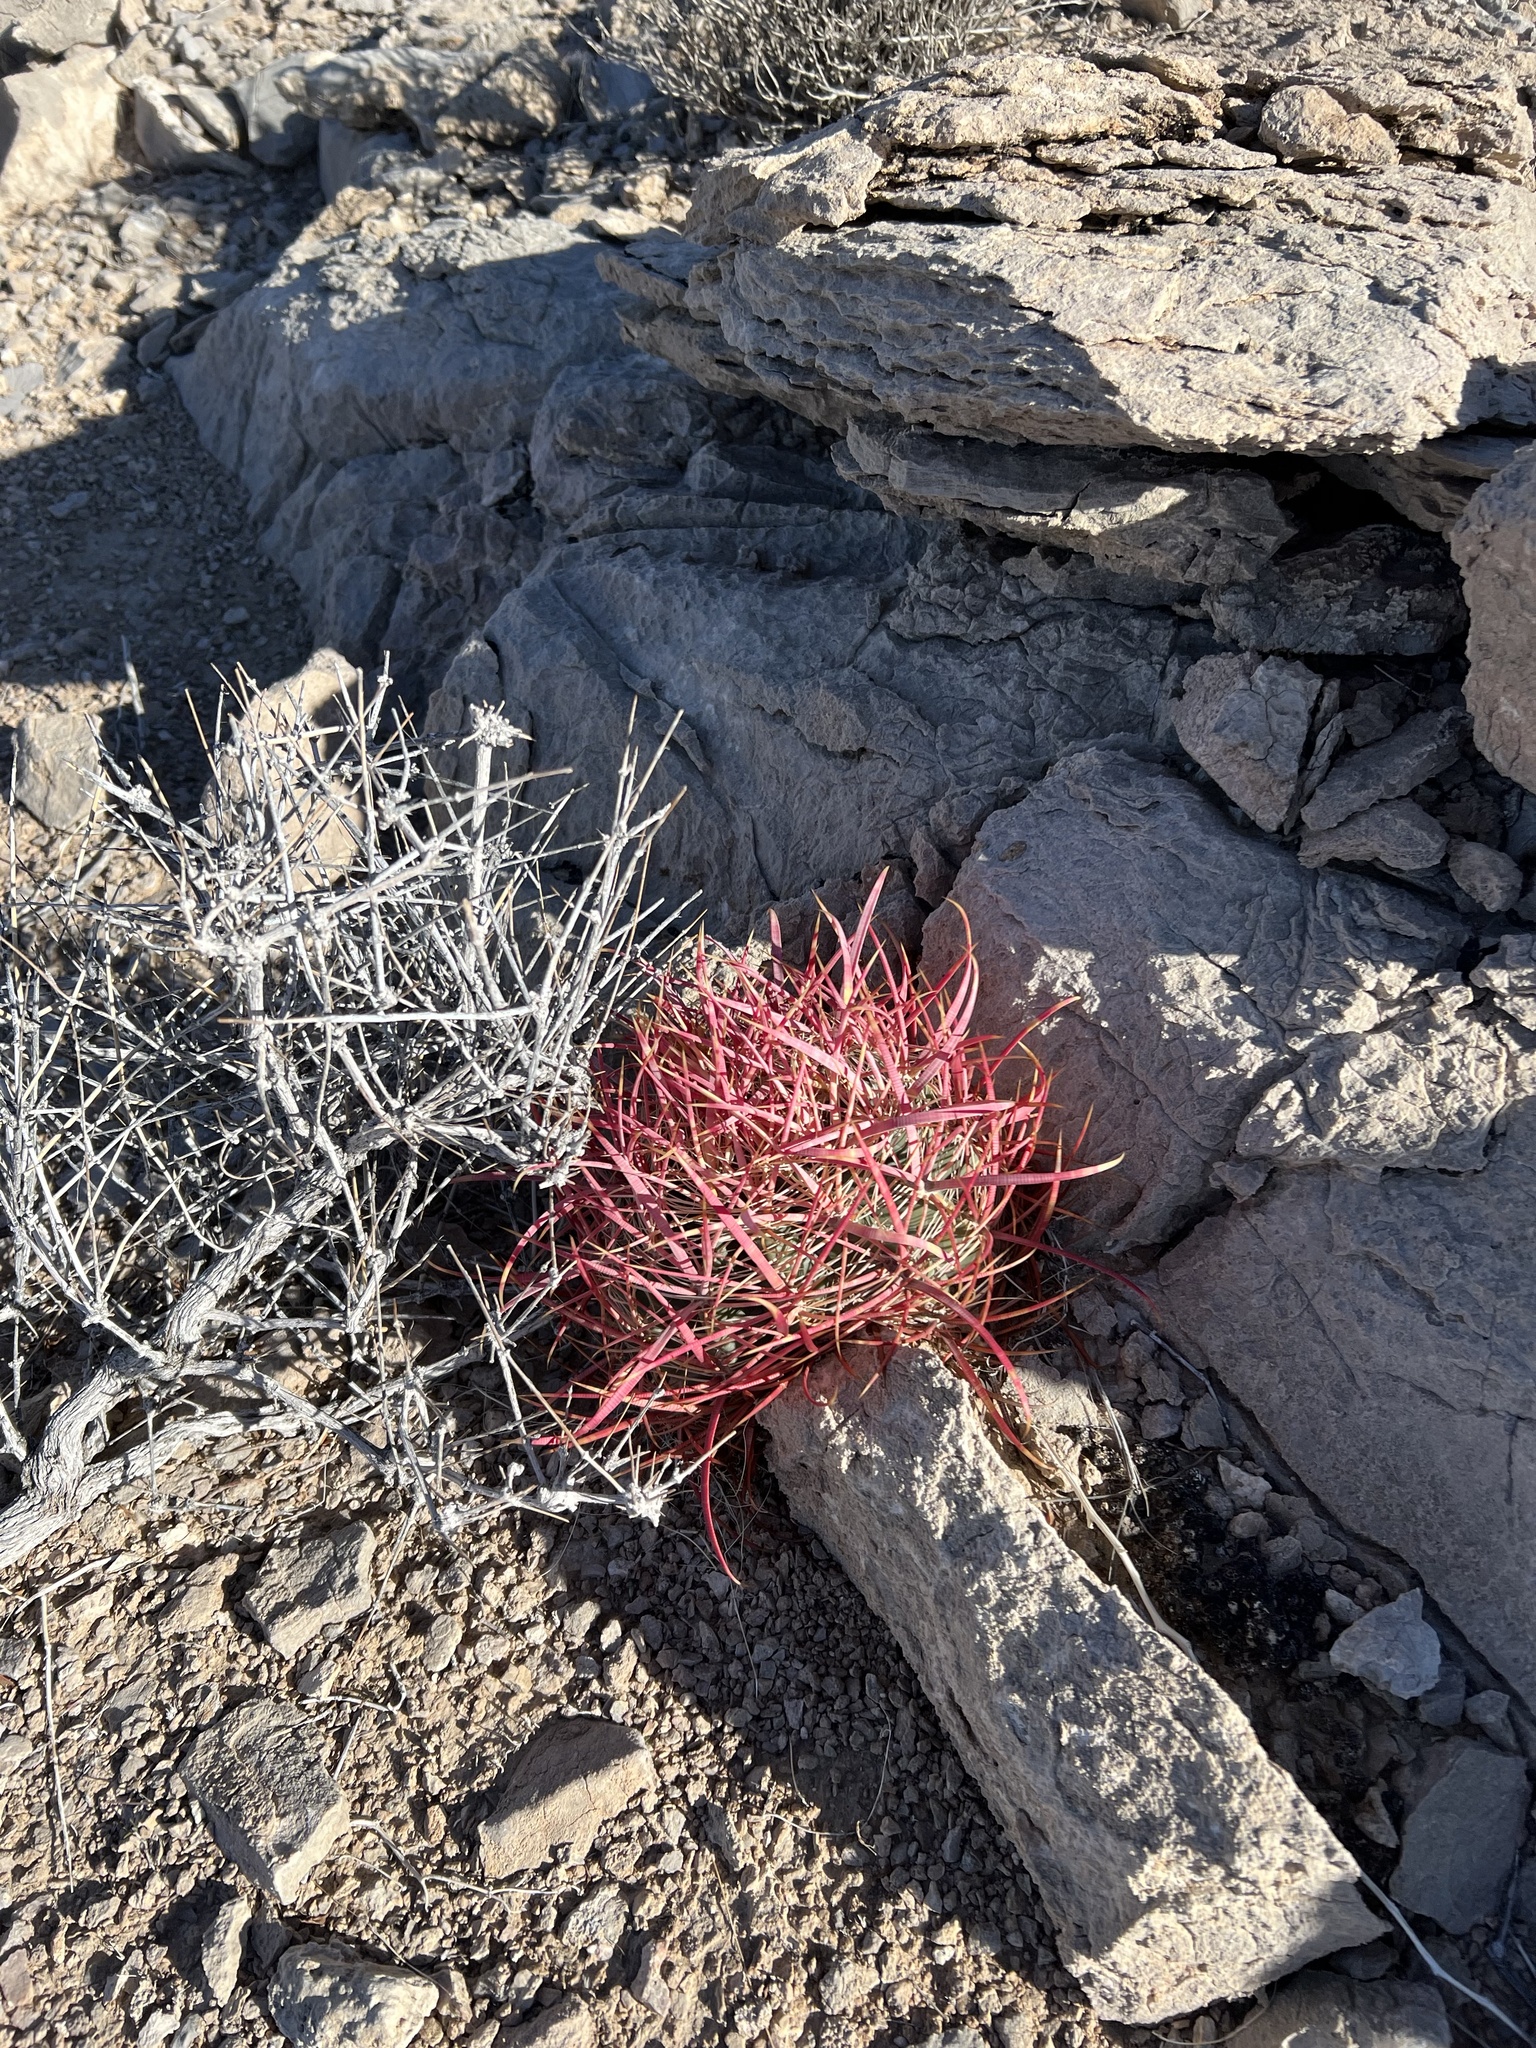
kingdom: Plantae
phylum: Tracheophyta
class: Magnoliopsida
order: Caryophyllales
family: Cactaceae
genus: Ferocactus
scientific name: Ferocactus cylindraceus
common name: California barrel cactus
